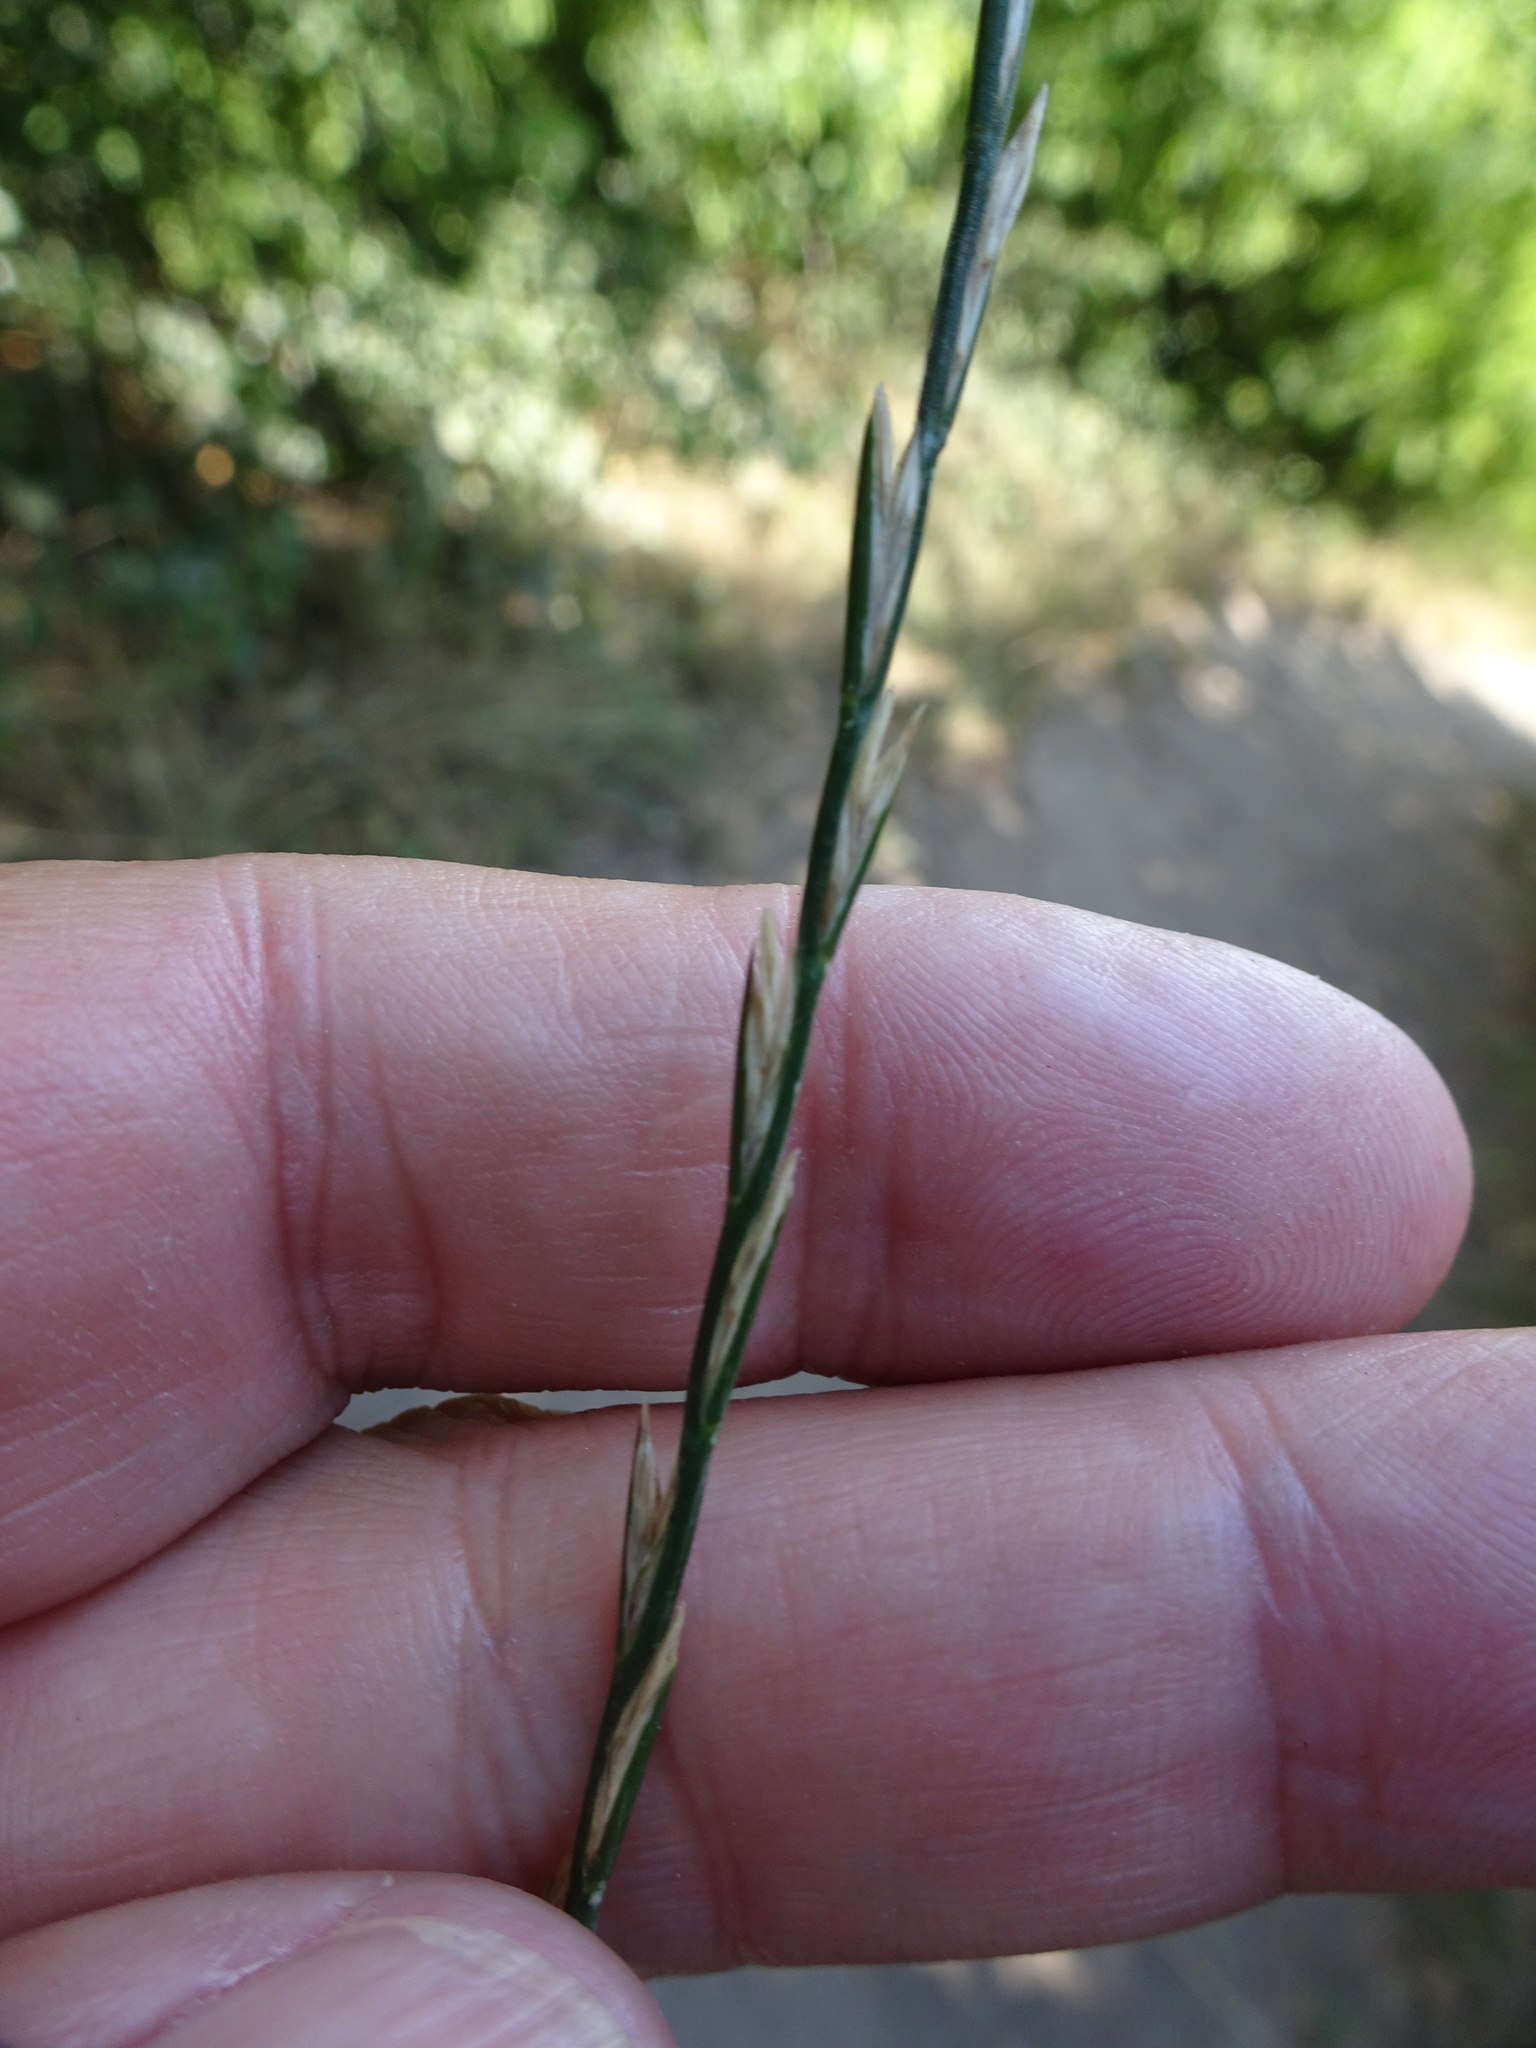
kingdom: Plantae
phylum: Tracheophyta
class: Liliopsida
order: Poales
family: Poaceae
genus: Lolium
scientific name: Lolium perenne
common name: Perennial ryegrass
